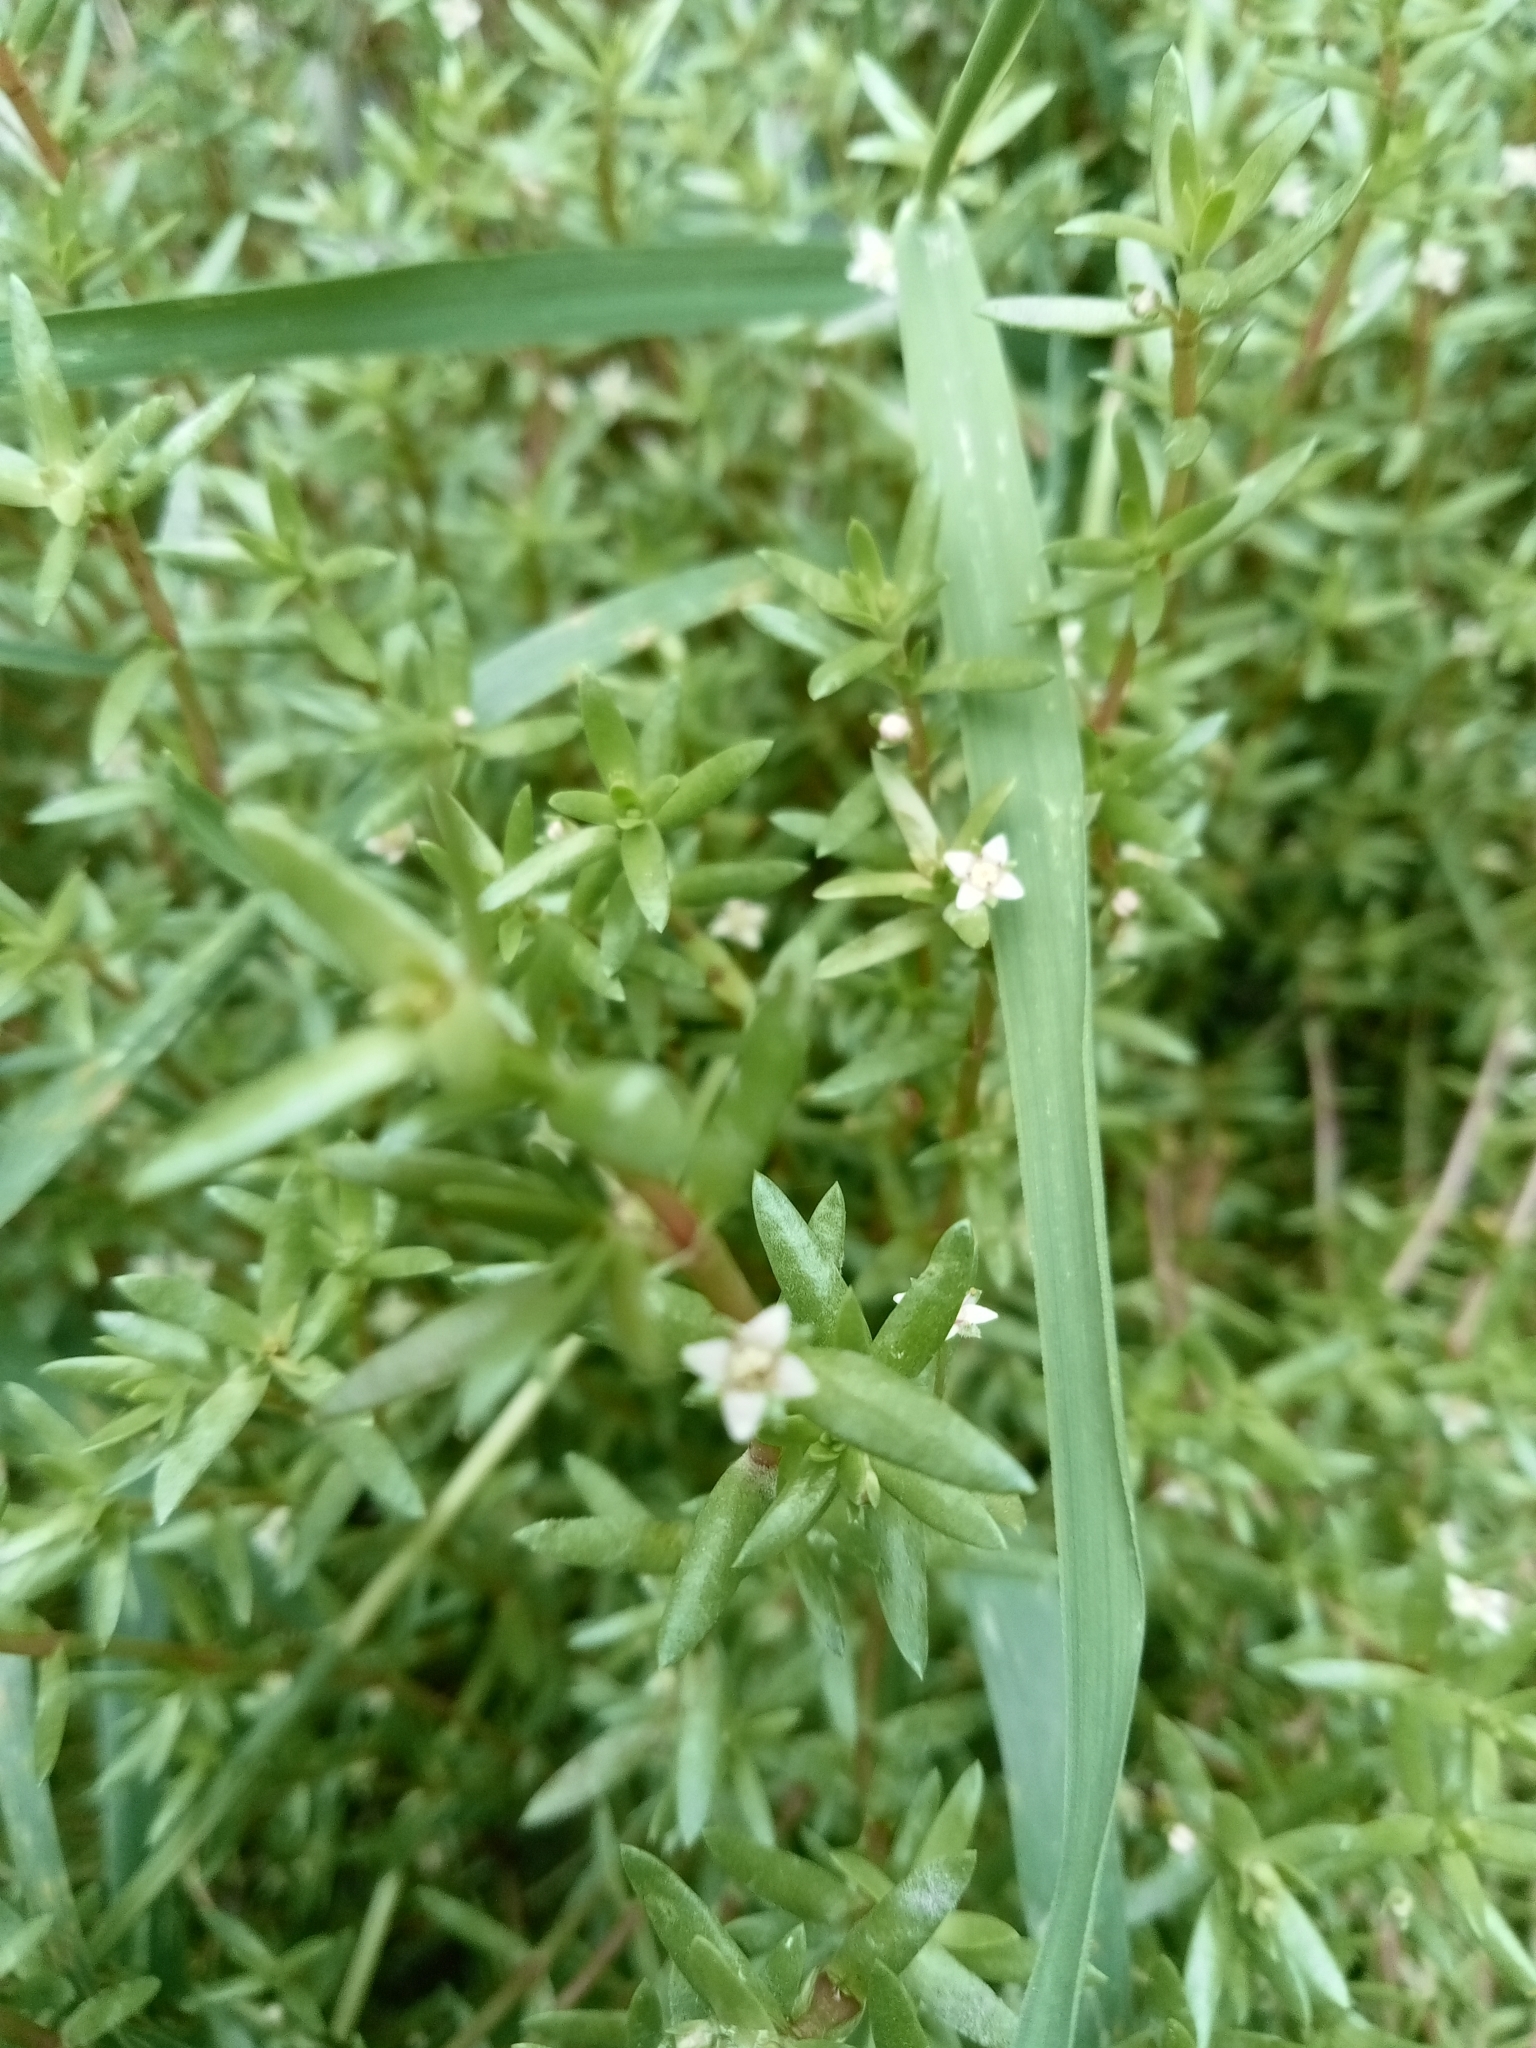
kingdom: Plantae
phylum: Tracheophyta
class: Magnoliopsida
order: Saxifragales
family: Crassulaceae
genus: Crassula
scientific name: Crassula helmsii
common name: New zealand pigmyweed
